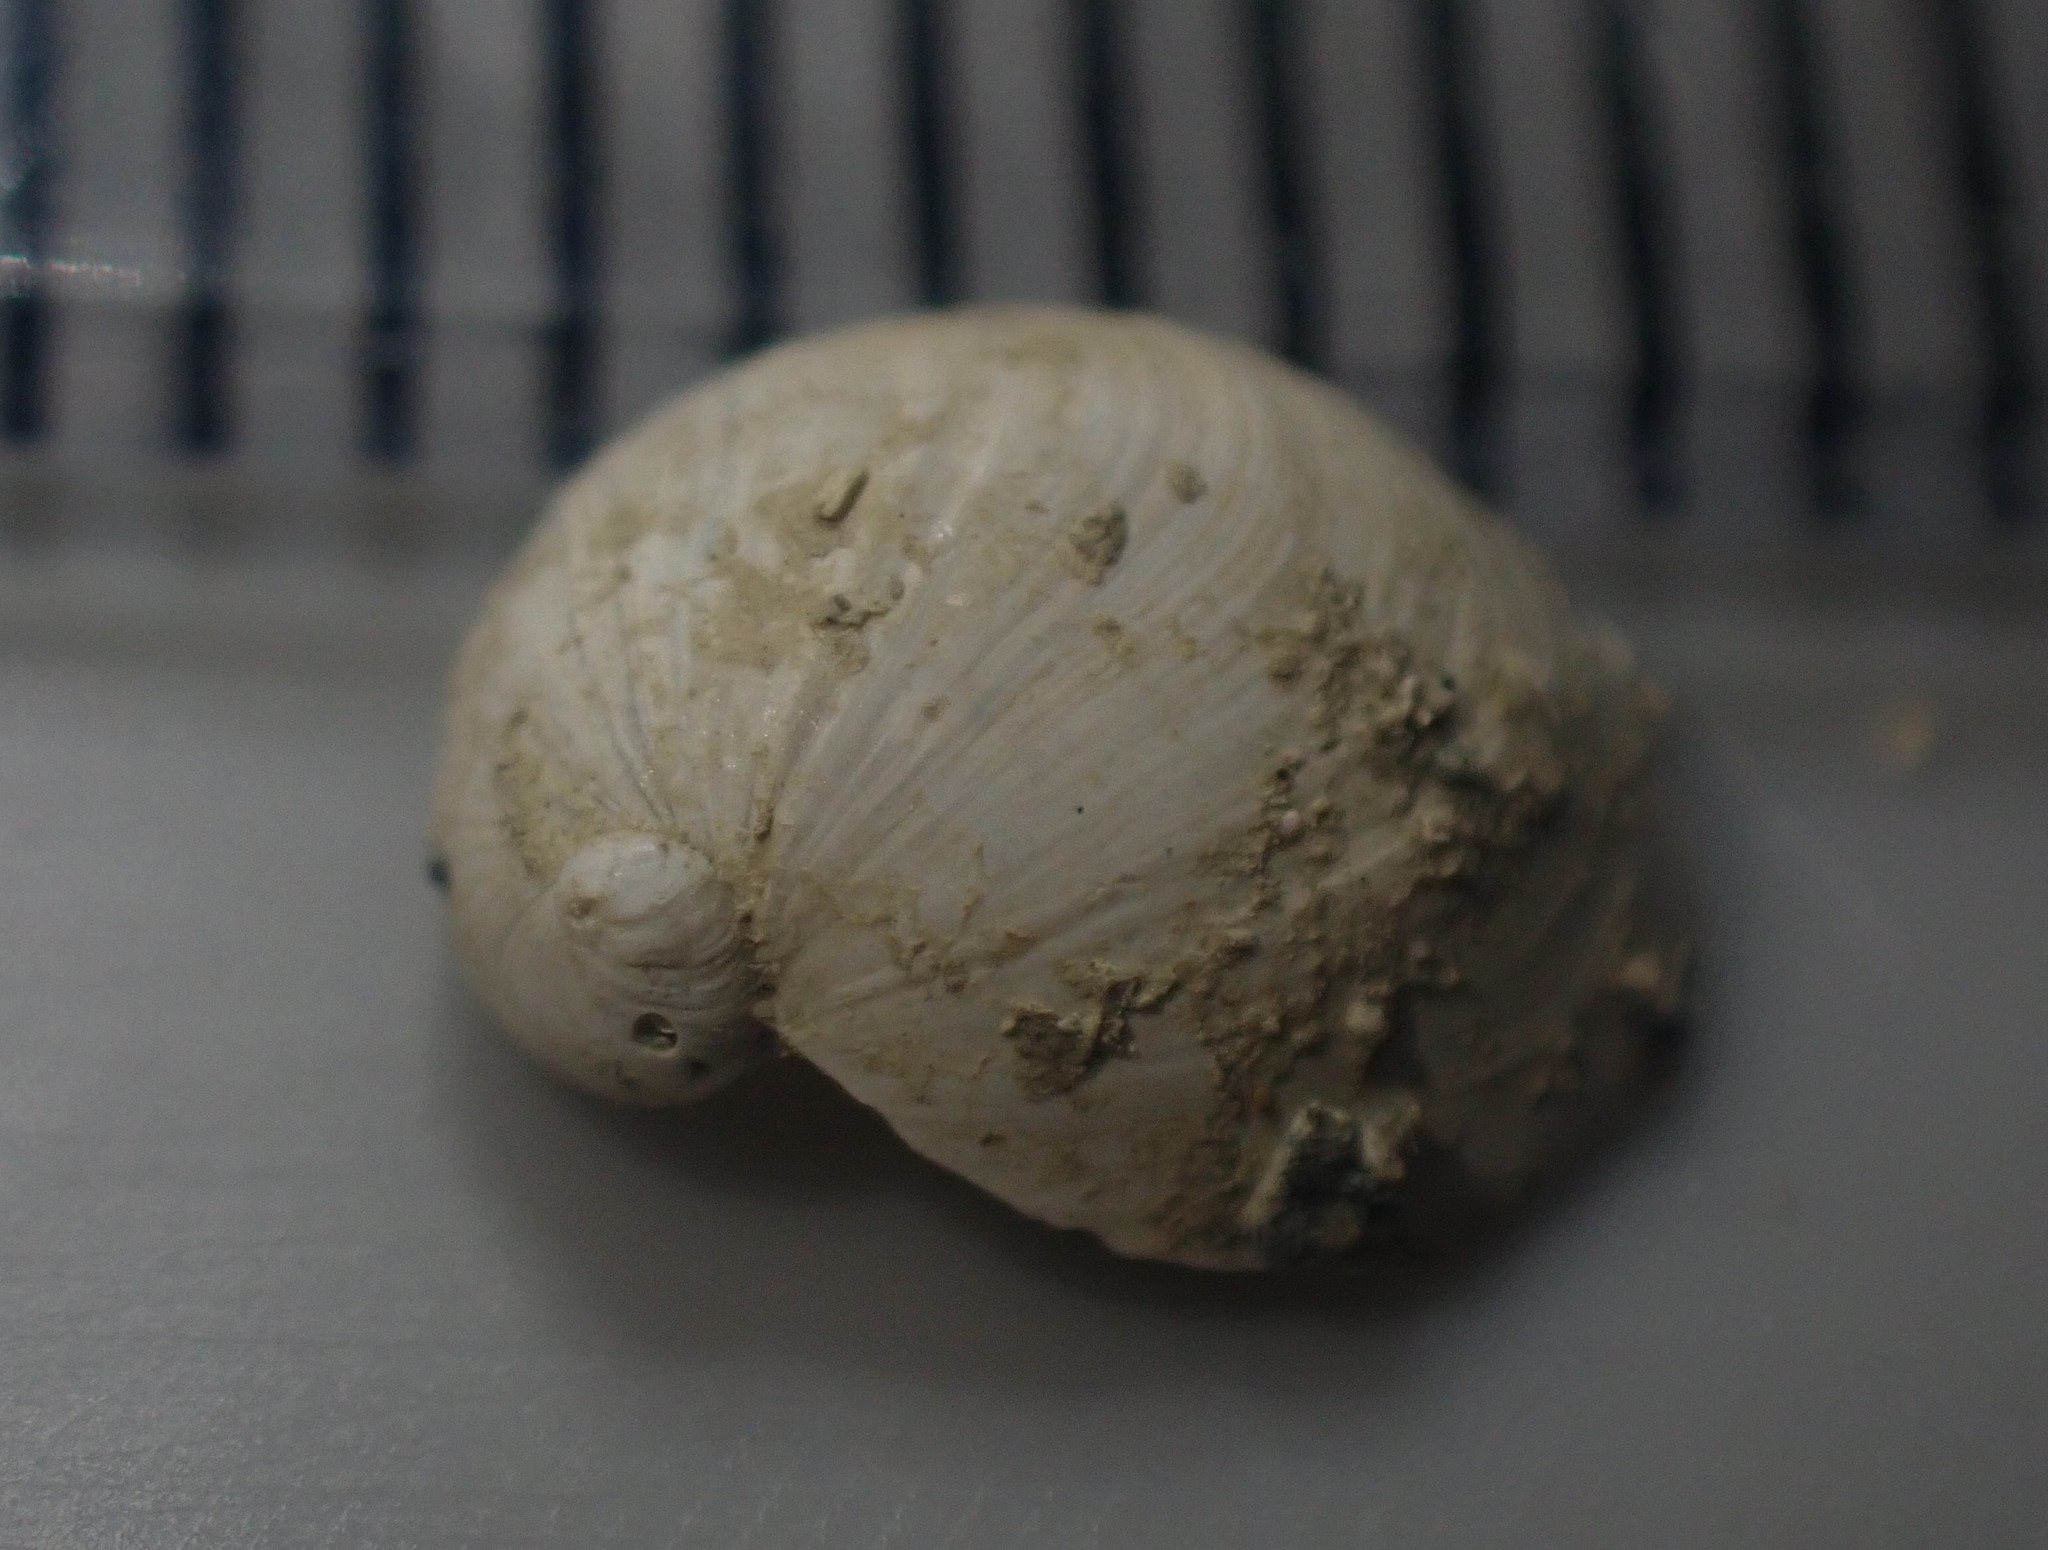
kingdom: Animalia
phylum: Mollusca
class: Gastropoda
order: Littorinimorpha
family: Velutinidae
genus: Lamellaria
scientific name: Lamellaria ophione
